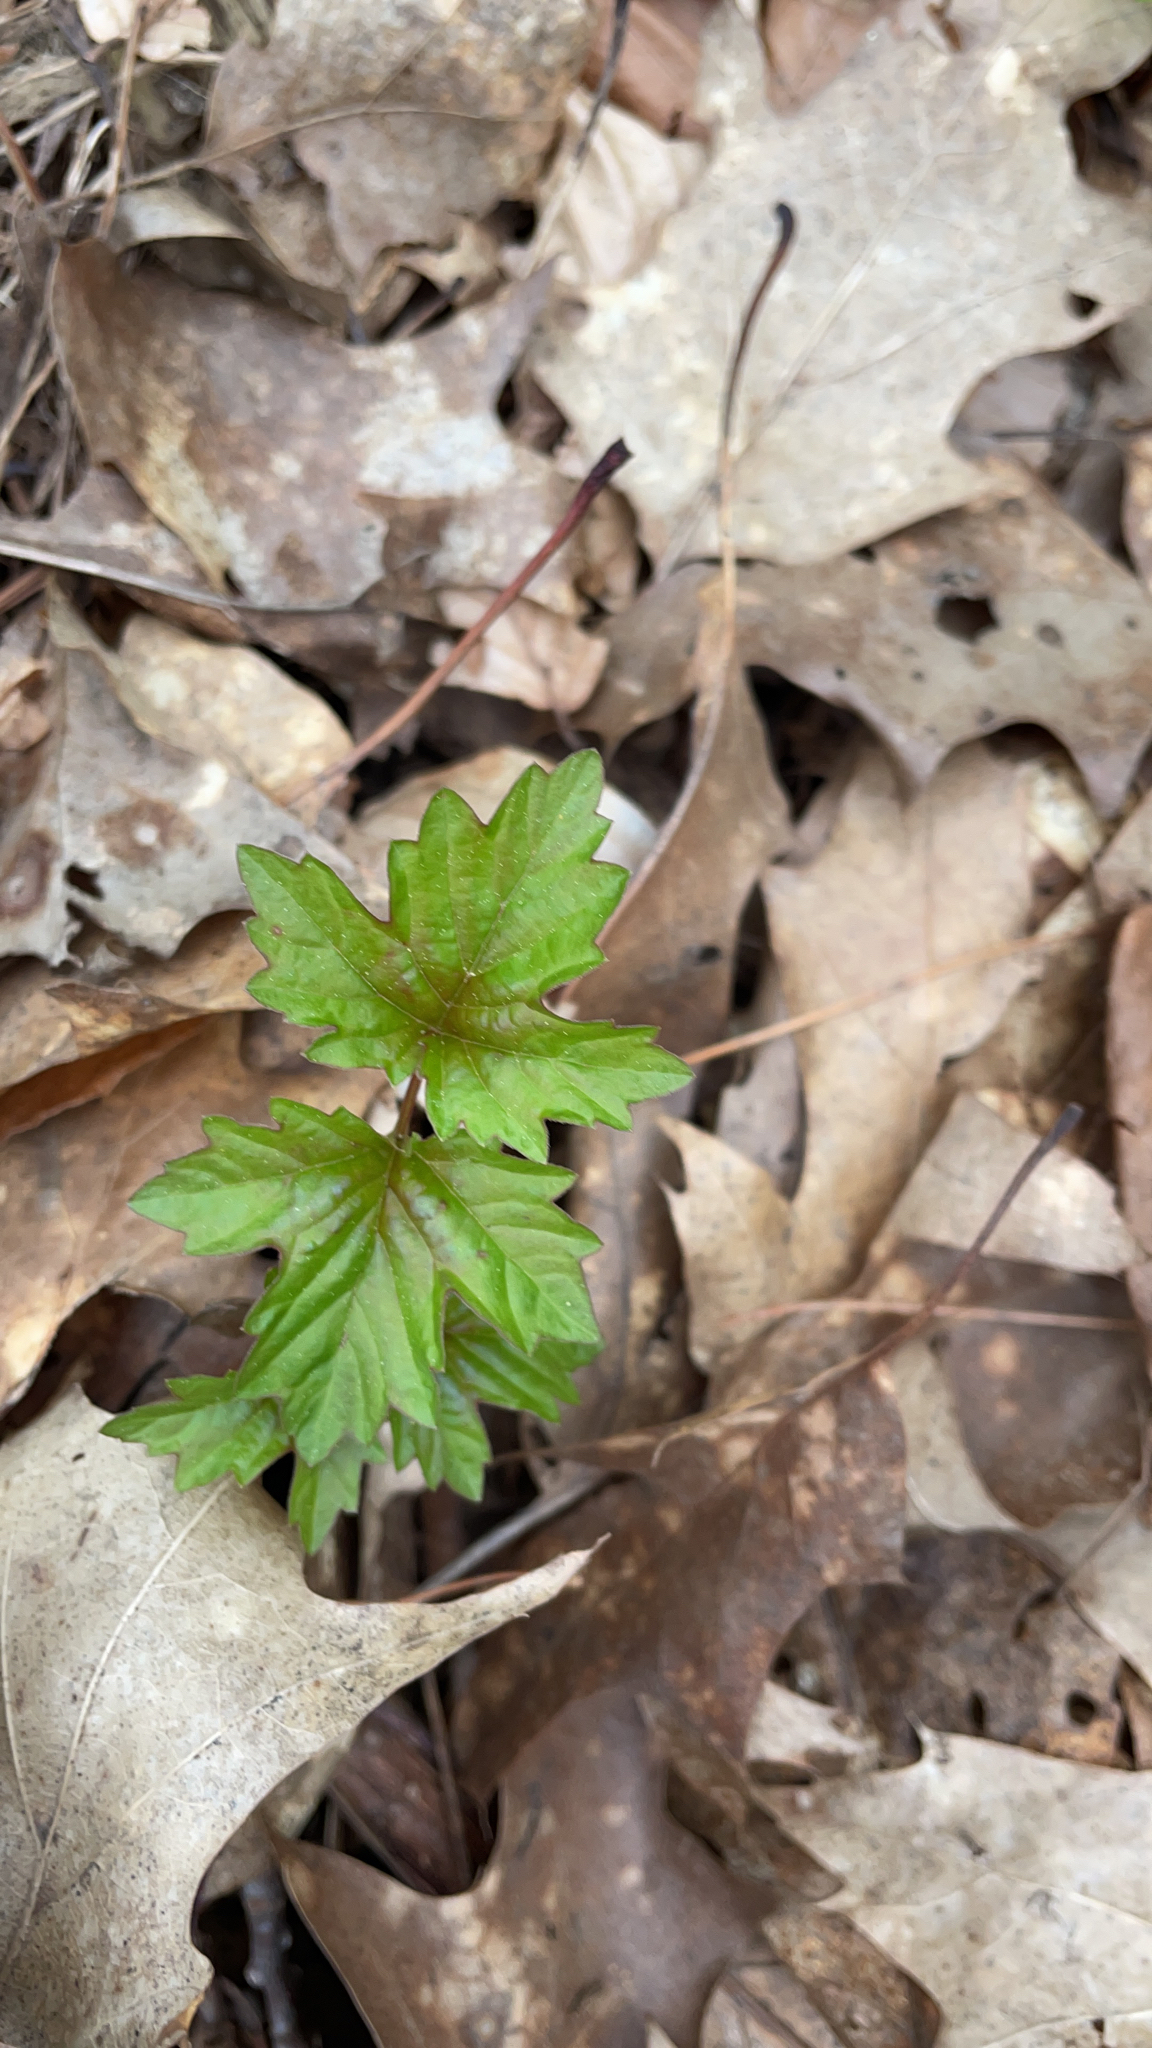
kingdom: Plantae
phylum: Tracheophyta
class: Magnoliopsida
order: Dipsacales
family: Viburnaceae
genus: Viburnum
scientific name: Viburnum opulus
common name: Guelder-rose
